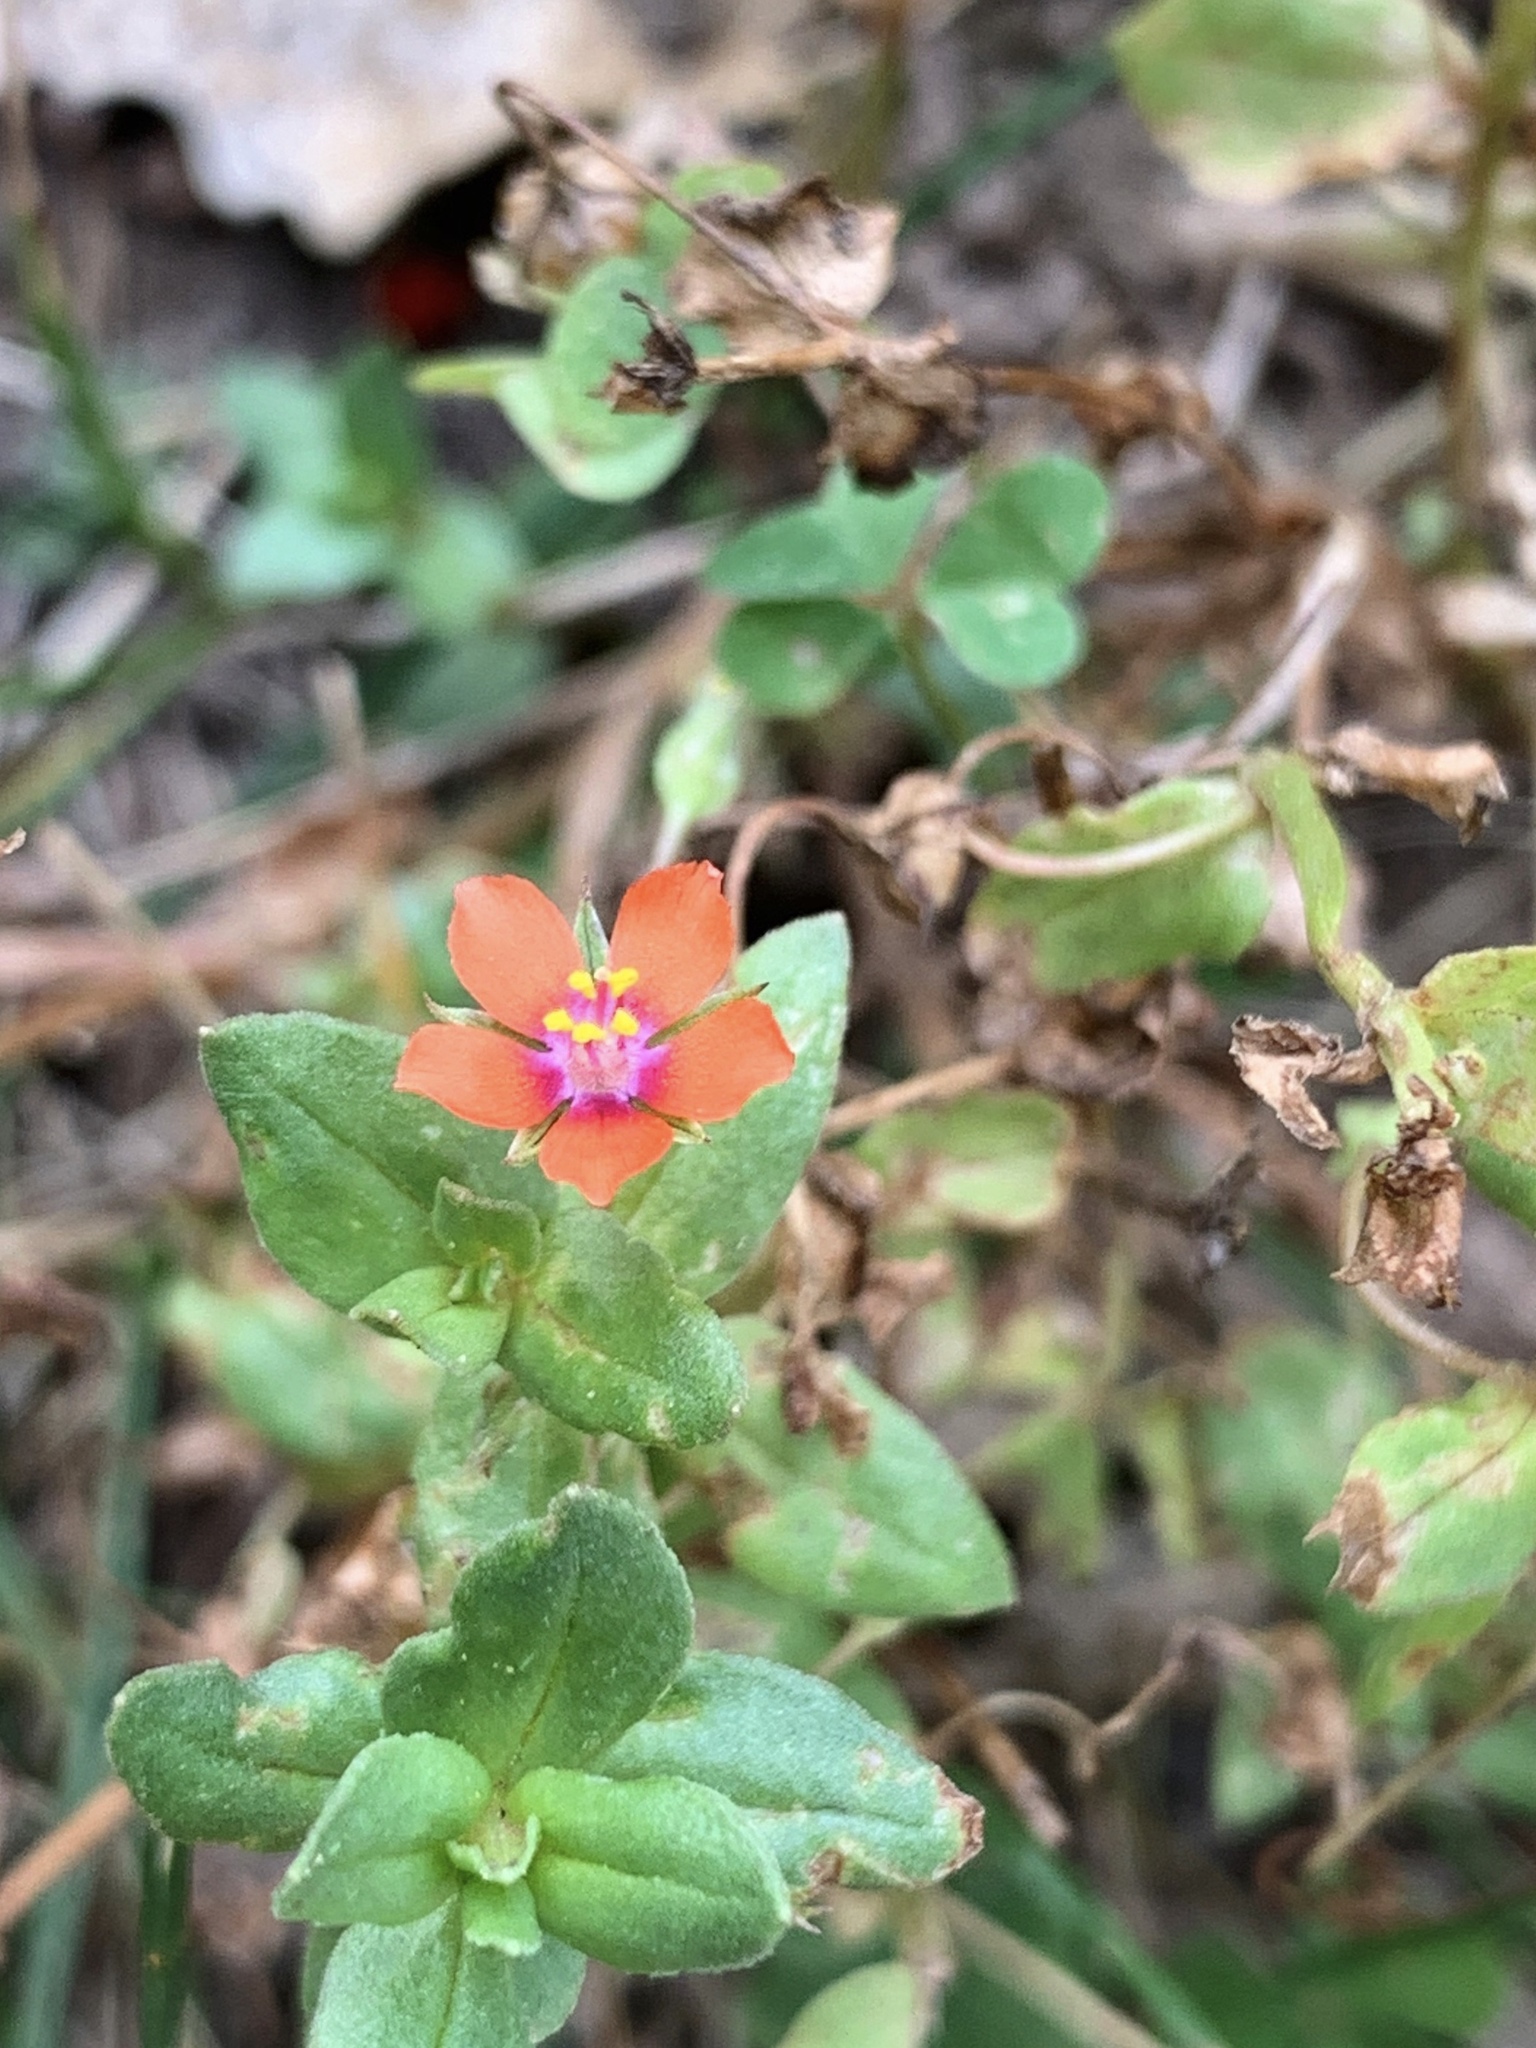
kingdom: Plantae
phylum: Tracheophyta
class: Magnoliopsida
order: Ericales
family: Primulaceae
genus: Lysimachia
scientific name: Lysimachia arvensis
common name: Scarlet pimpernel
